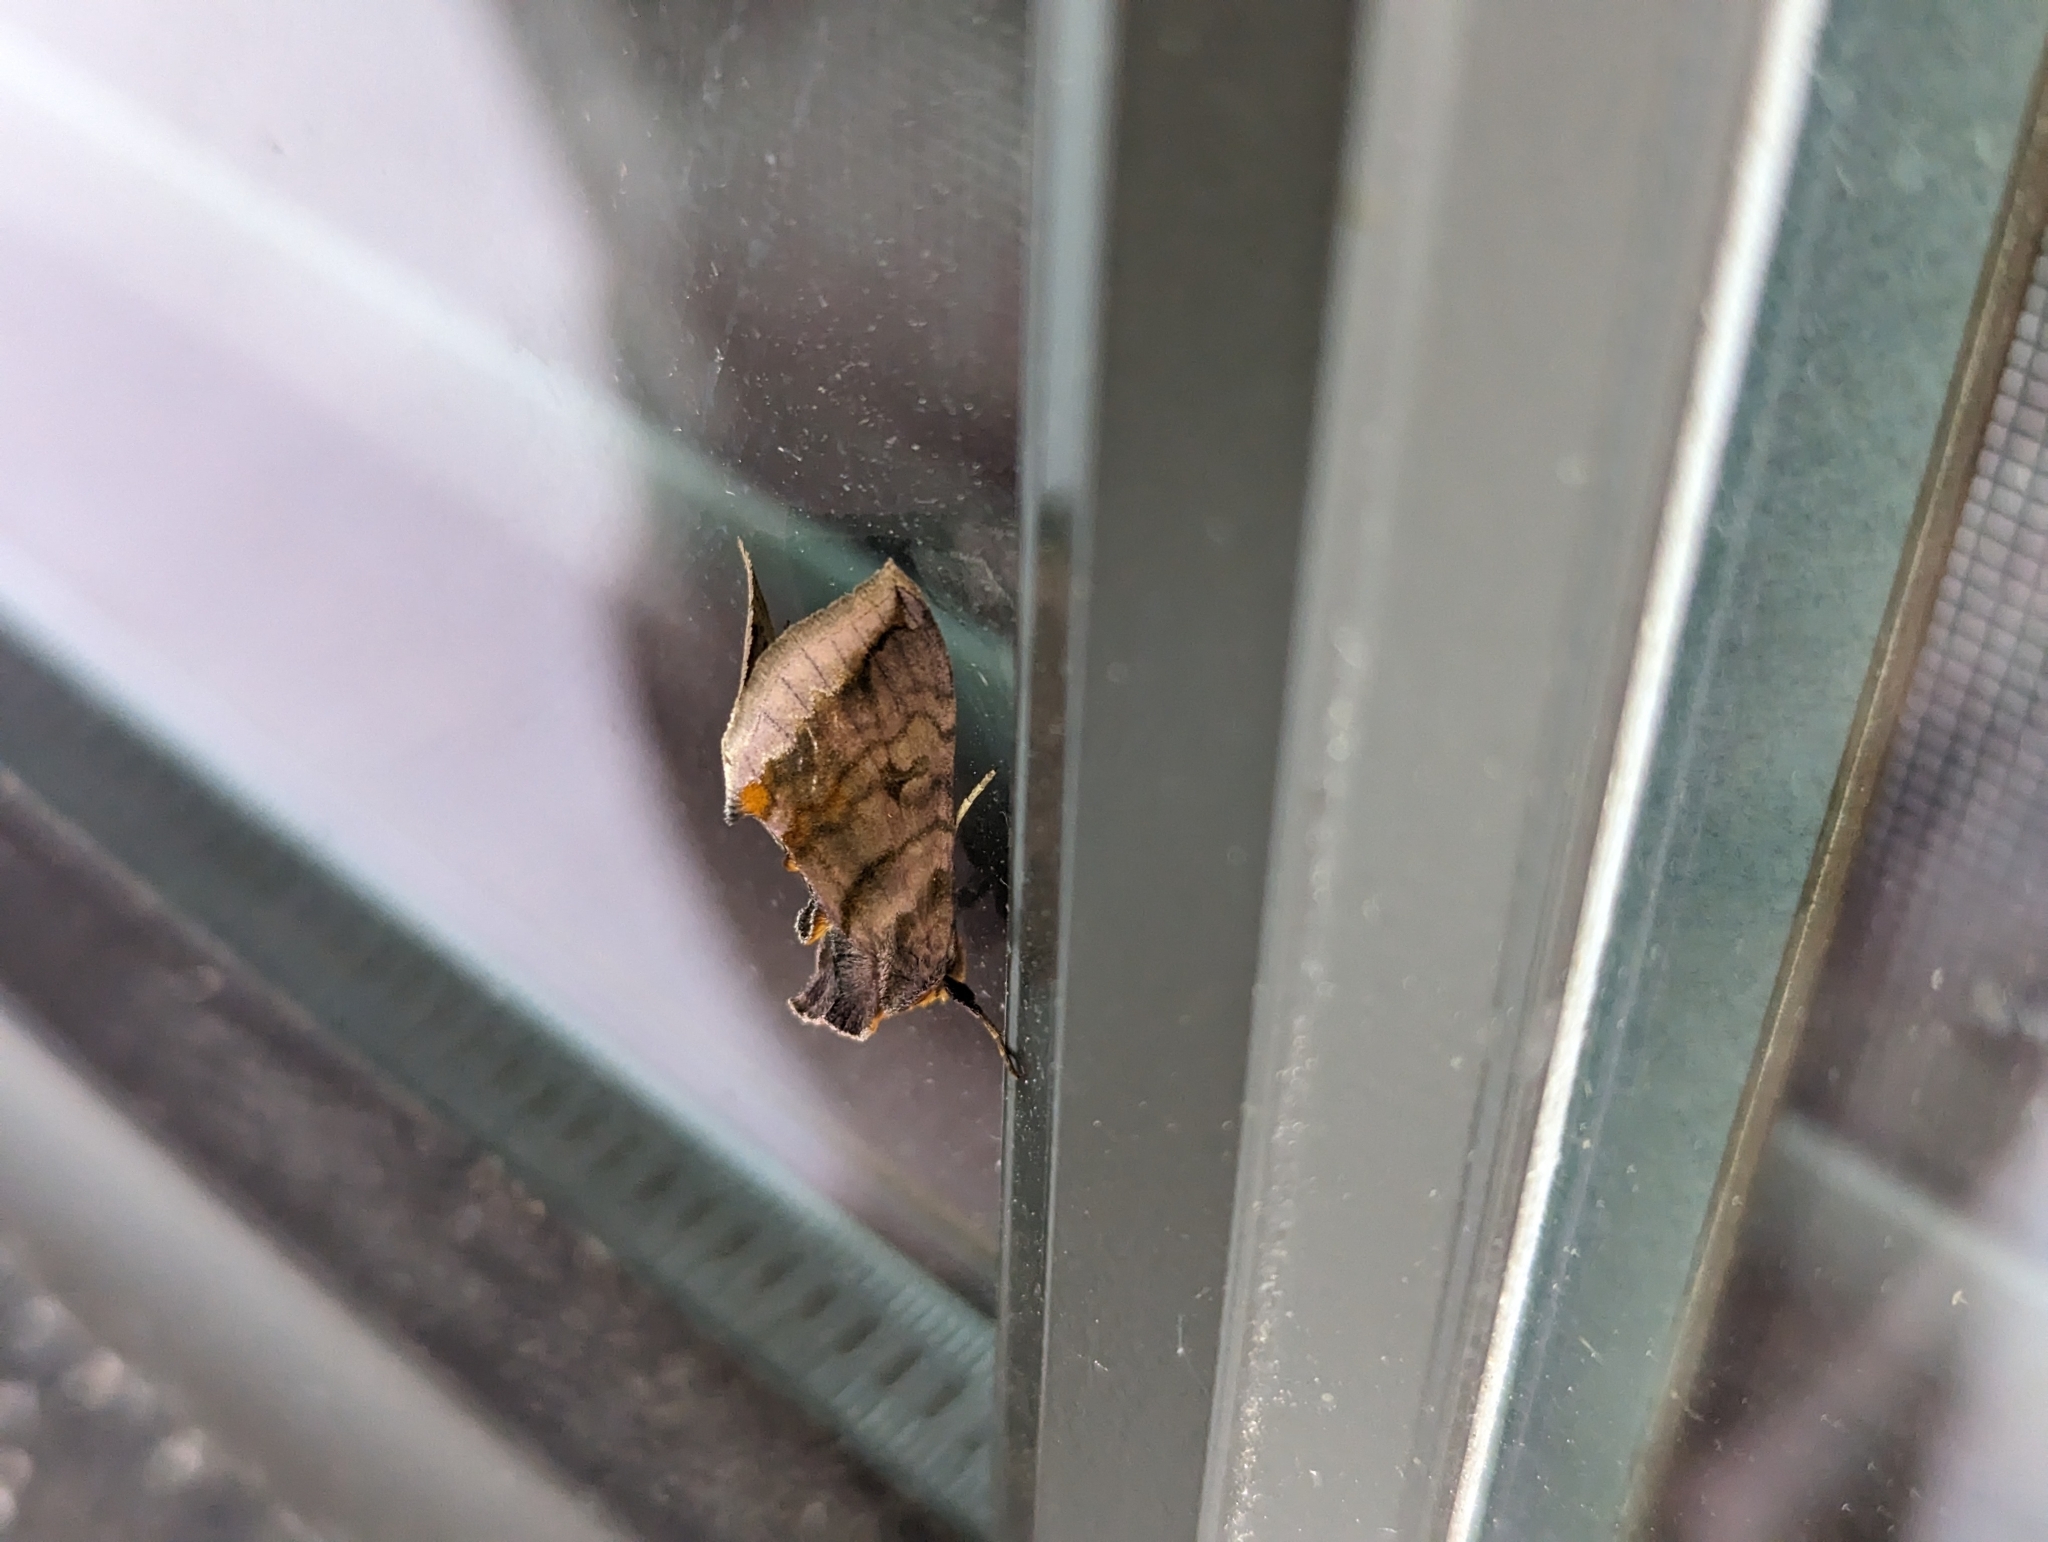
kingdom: Animalia
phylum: Arthropoda
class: Insecta
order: Lepidoptera
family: Noctuidae
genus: Allagrapha
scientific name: Allagrapha aerea
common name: Unspotted looper moth
